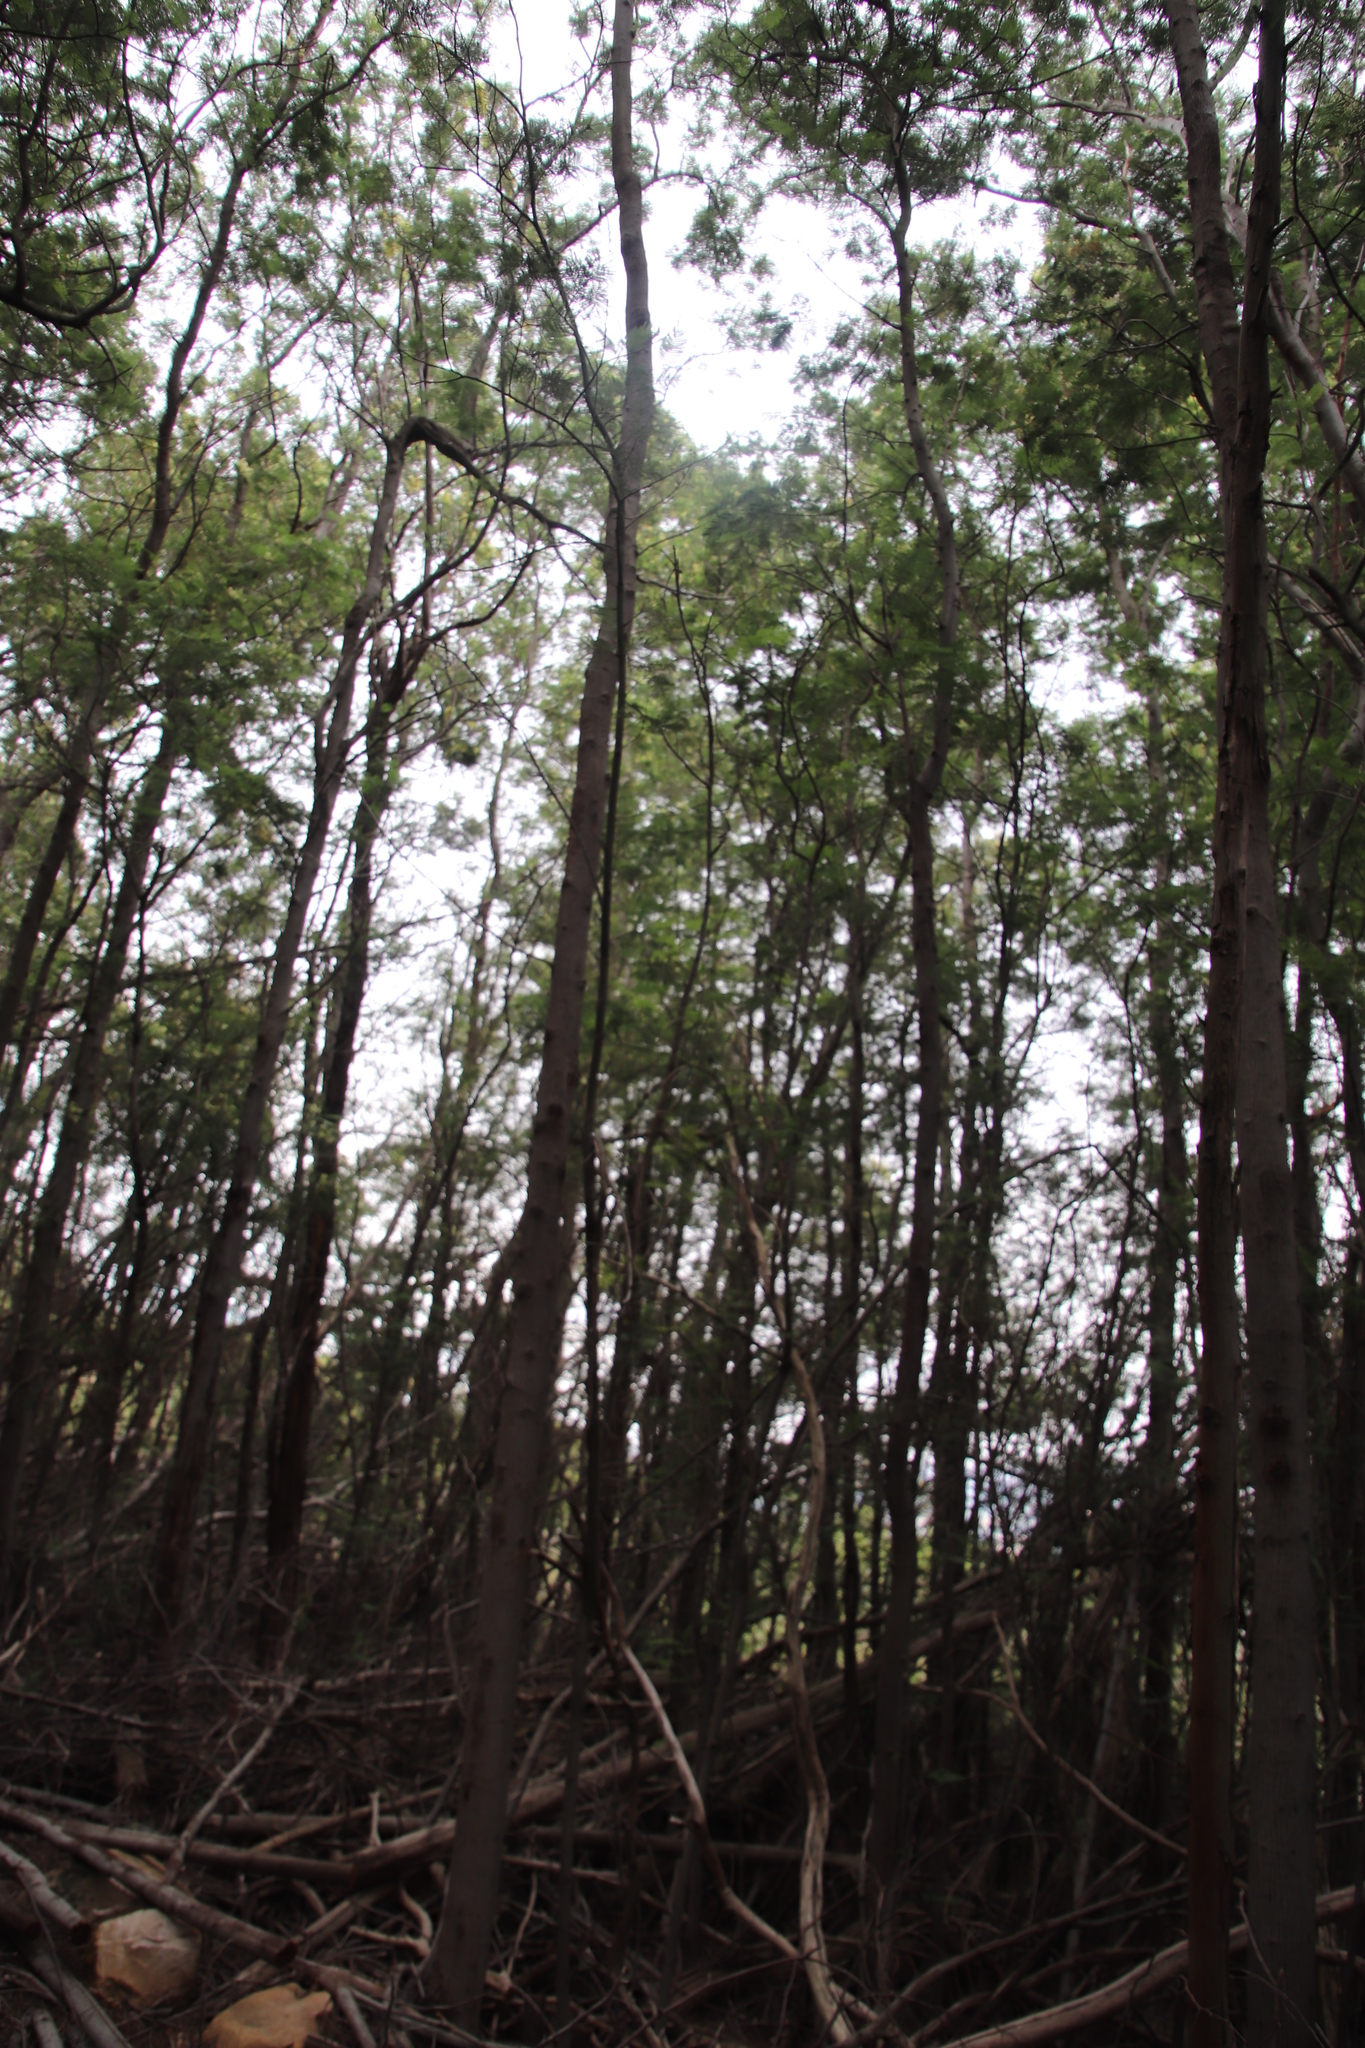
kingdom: Plantae
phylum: Tracheophyta
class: Magnoliopsida
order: Fabales
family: Fabaceae
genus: Acacia
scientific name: Acacia mearnsii
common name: Black wattle
